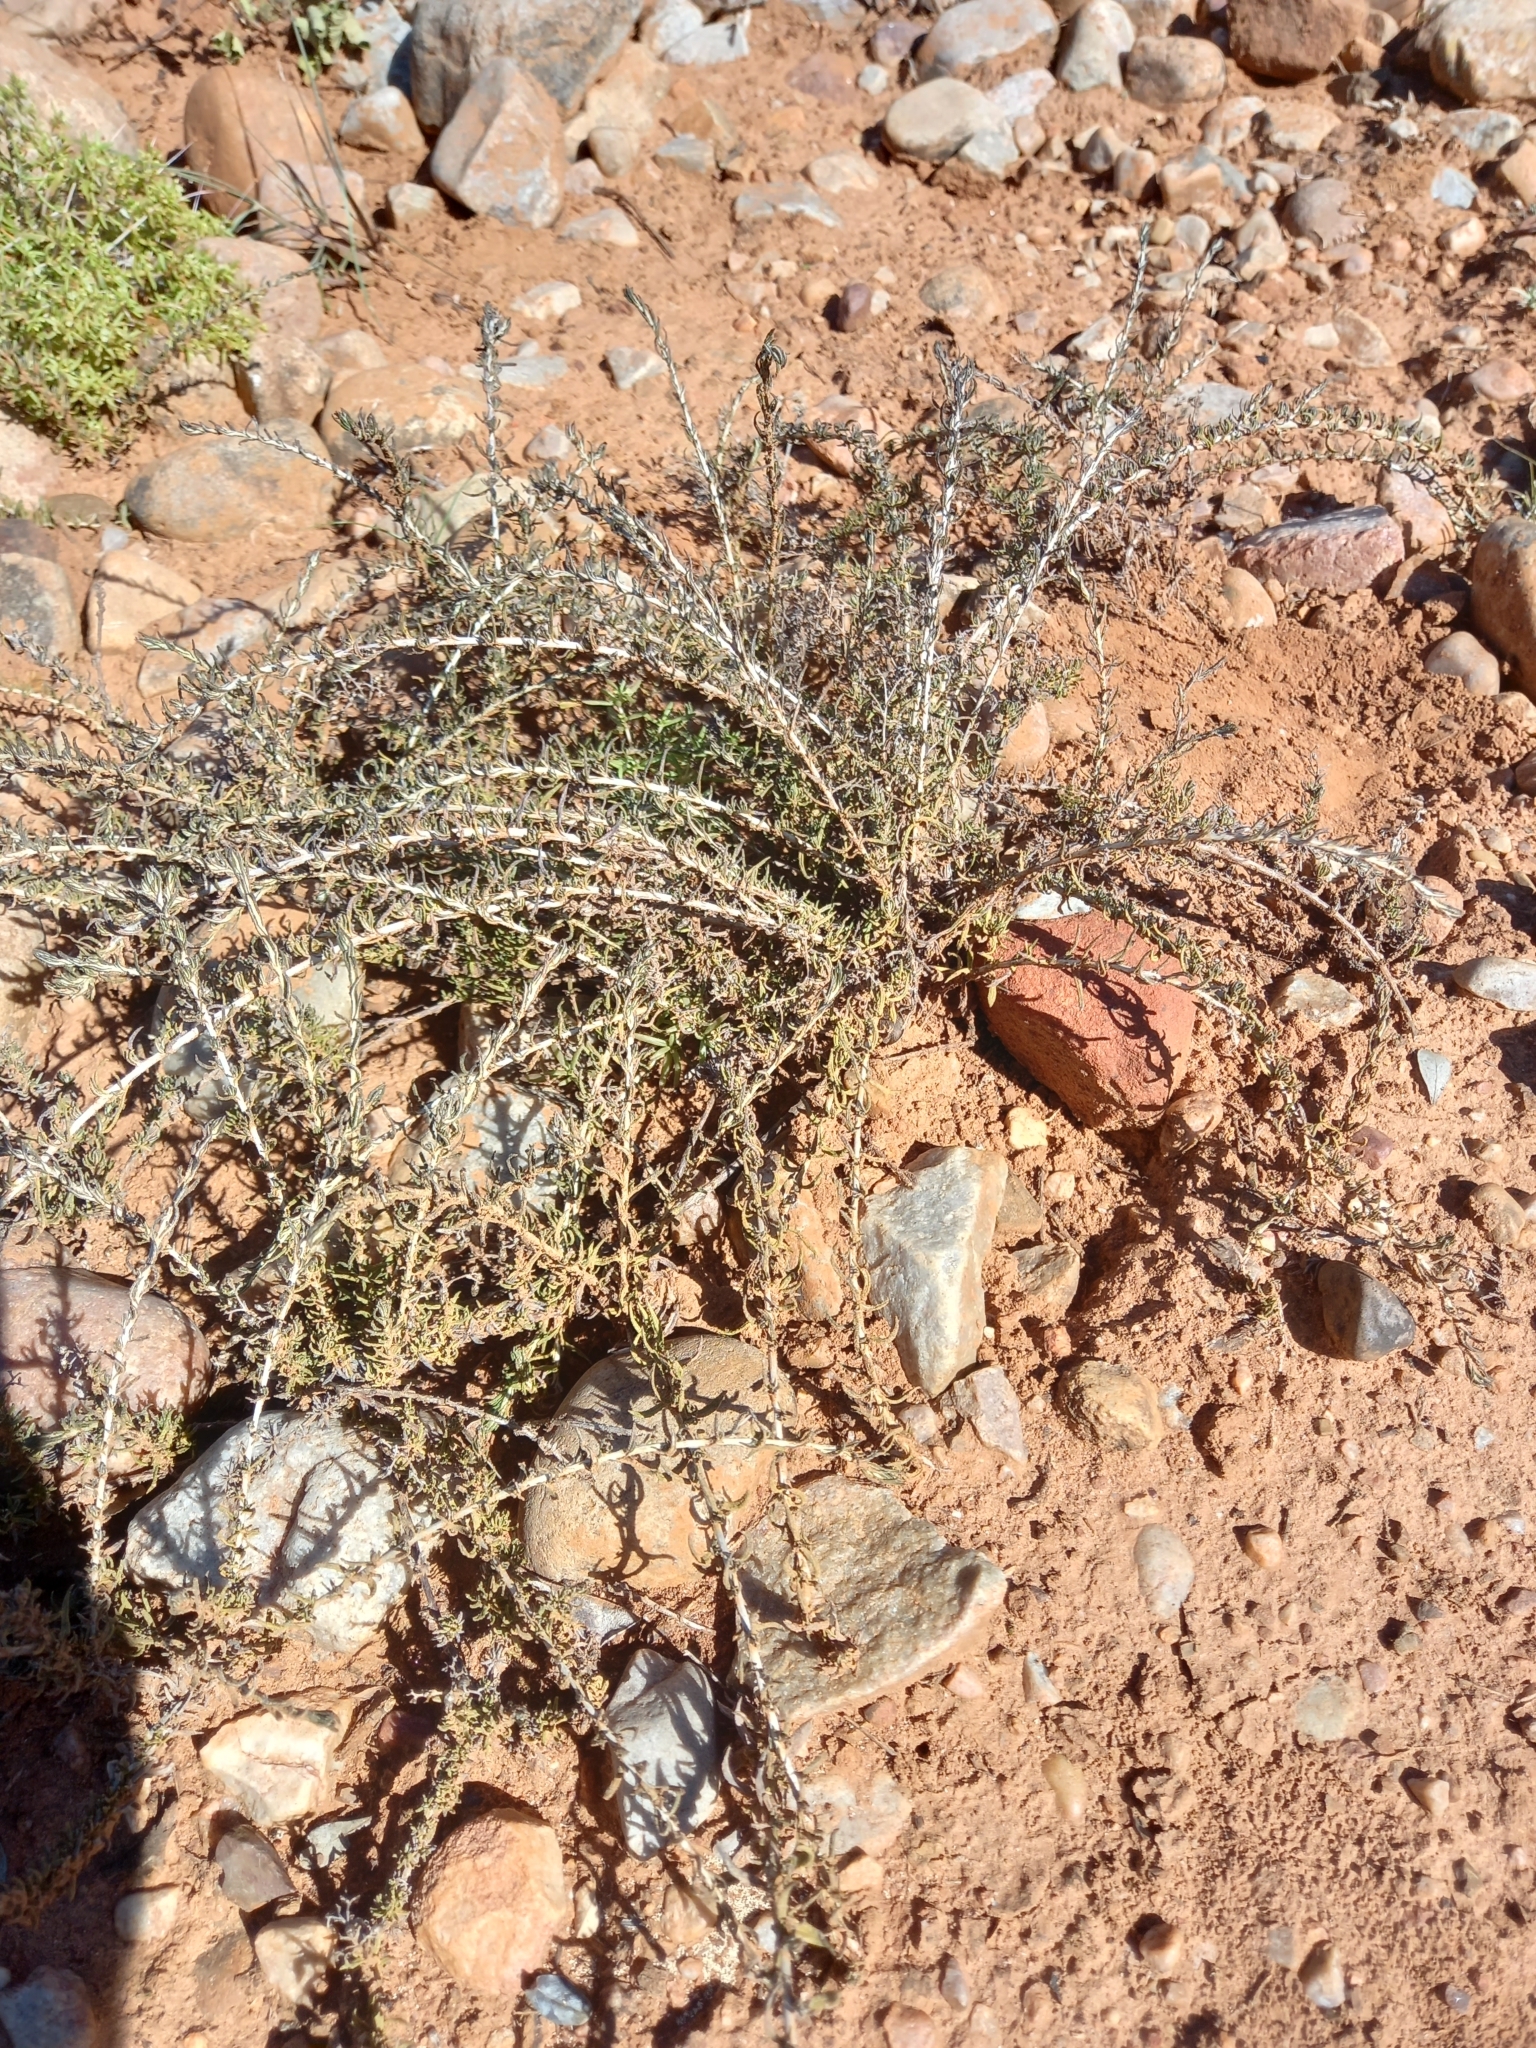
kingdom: Plantae
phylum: Tracheophyta
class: Magnoliopsida
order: Asterales
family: Asteraceae
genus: Pentzia
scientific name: Pentzia incana
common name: African sheepbush
